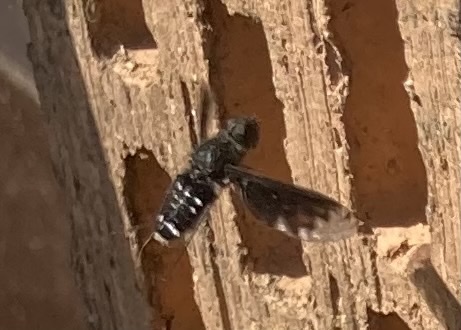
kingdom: Animalia
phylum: Arthropoda
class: Insecta
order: Diptera
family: Bombyliidae
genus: Anthrax
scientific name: Anthrax anthrax
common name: Anthracite bee-fly
